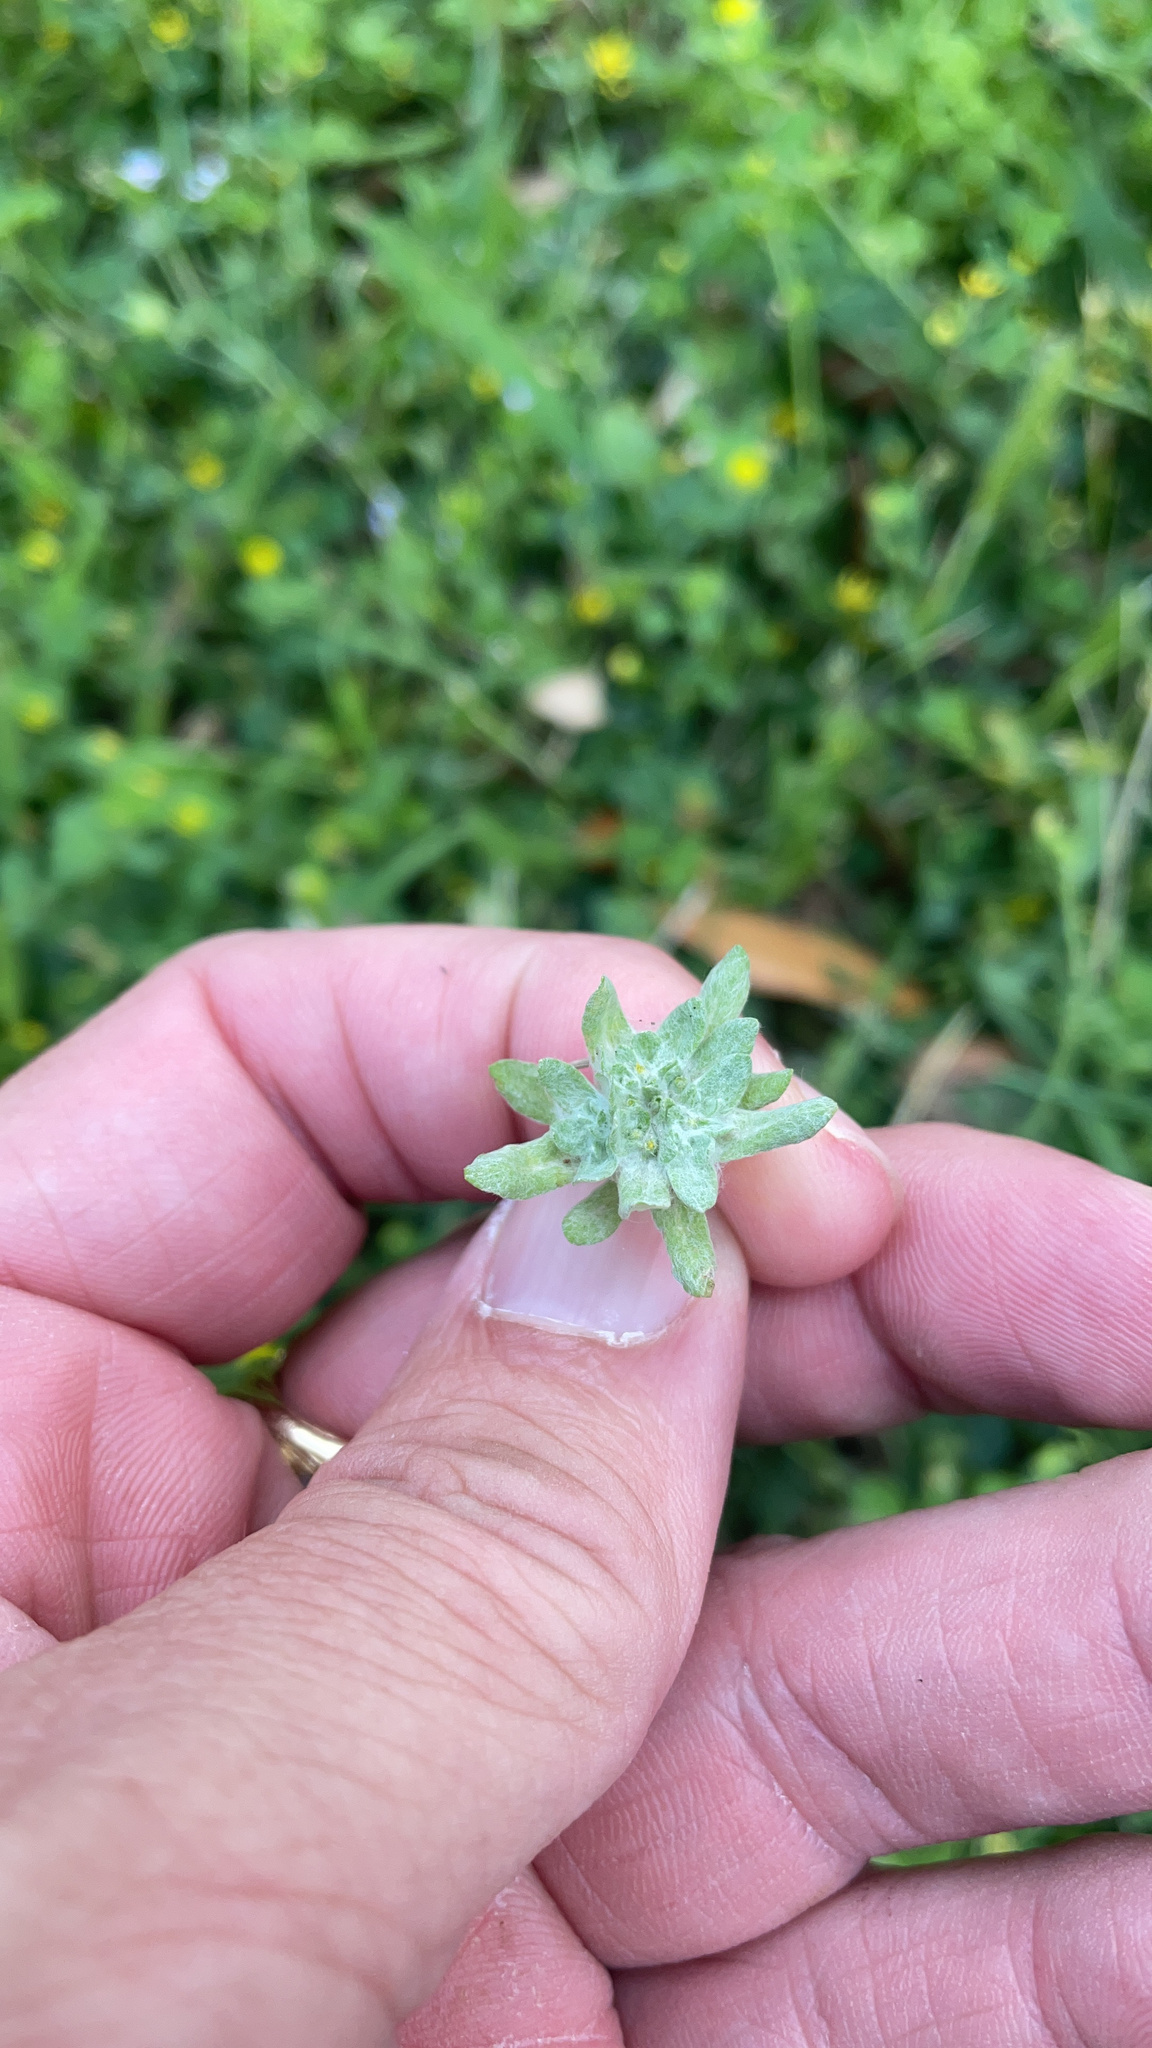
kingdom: Plantae
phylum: Tracheophyta
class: Magnoliopsida
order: Asterales
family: Asteraceae
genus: Diaperia
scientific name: Diaperia prolifera
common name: Big-head rabbit-tobacco
